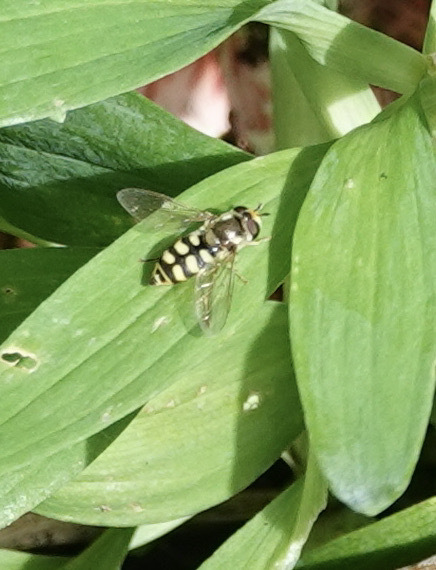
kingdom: Animalia
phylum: Arthropoda
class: Insecta
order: Diptera
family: Syrphidae
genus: Eupeodes
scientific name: Eupeodes corollae
